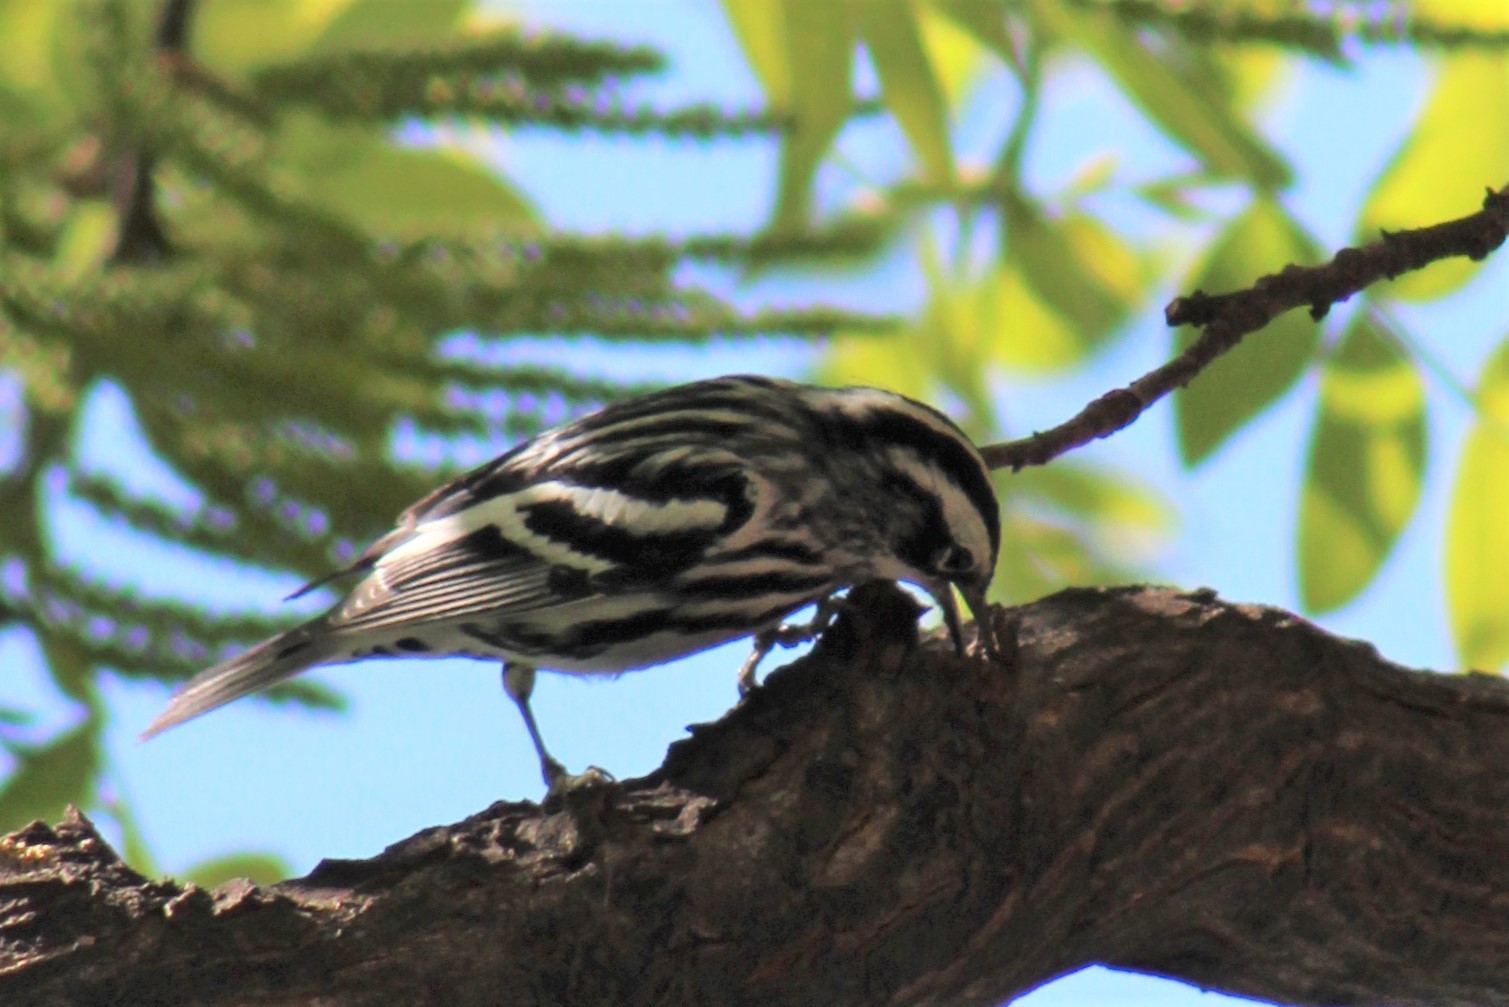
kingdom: Animalia
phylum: Chordata
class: Aves
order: Passeriformes
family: Parulidae
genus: Mniotilta
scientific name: Mniotilta varia
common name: Black-and-white warbler
